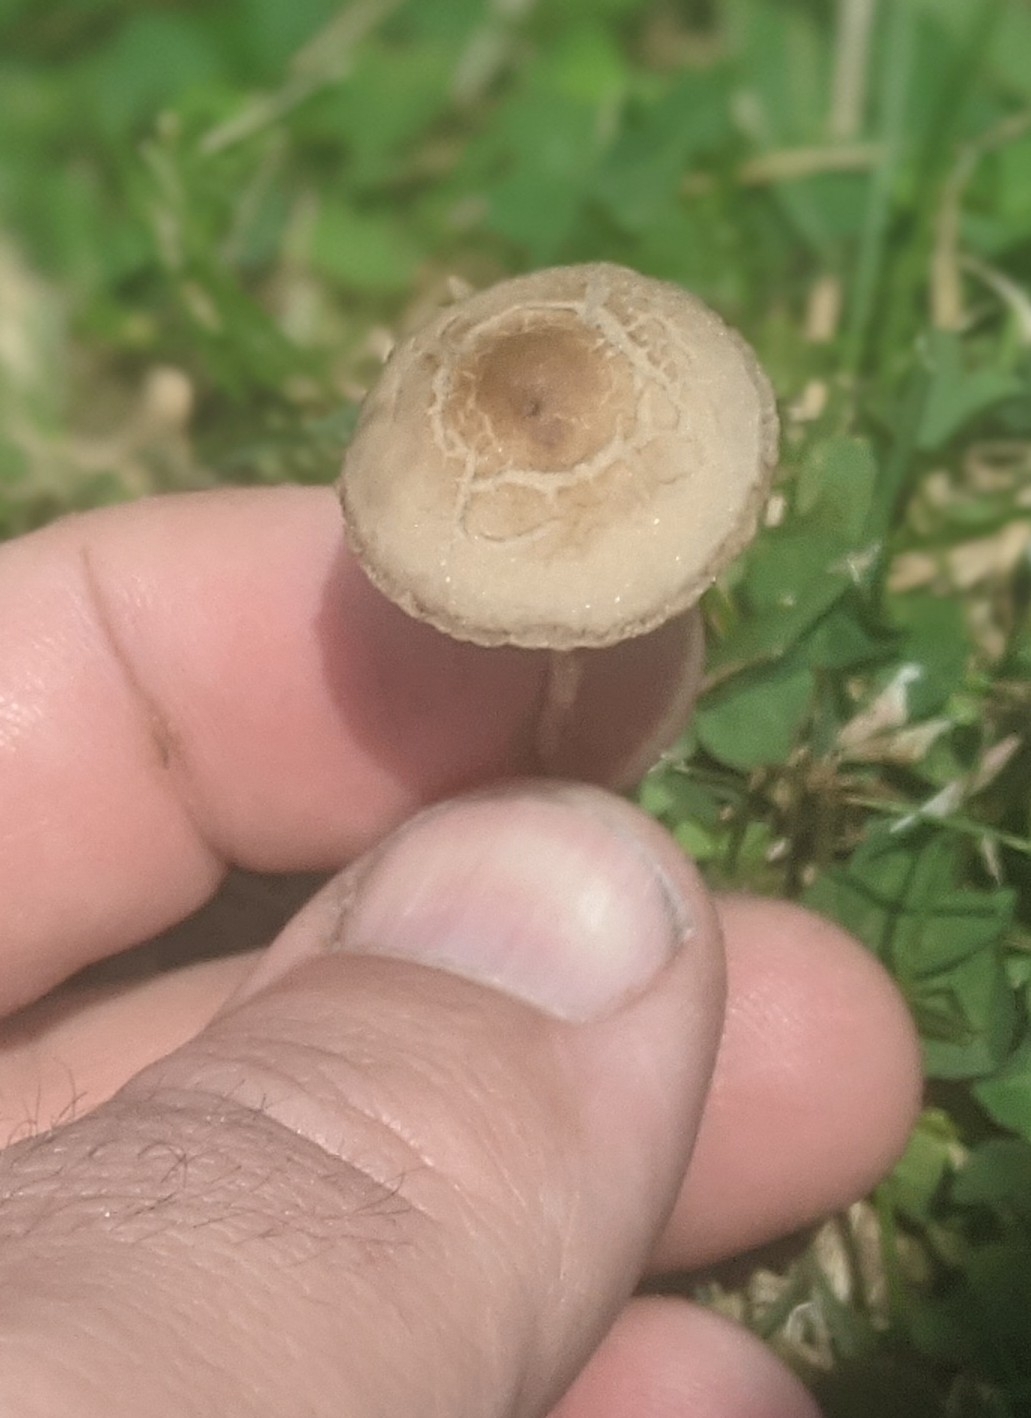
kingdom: Fungi
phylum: Basidiomycota
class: Agaricomycetes
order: Agaricales
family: Bolbitiaceae
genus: Panaeolina
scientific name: Panaeolina foenisecii
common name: Brown hay cap
